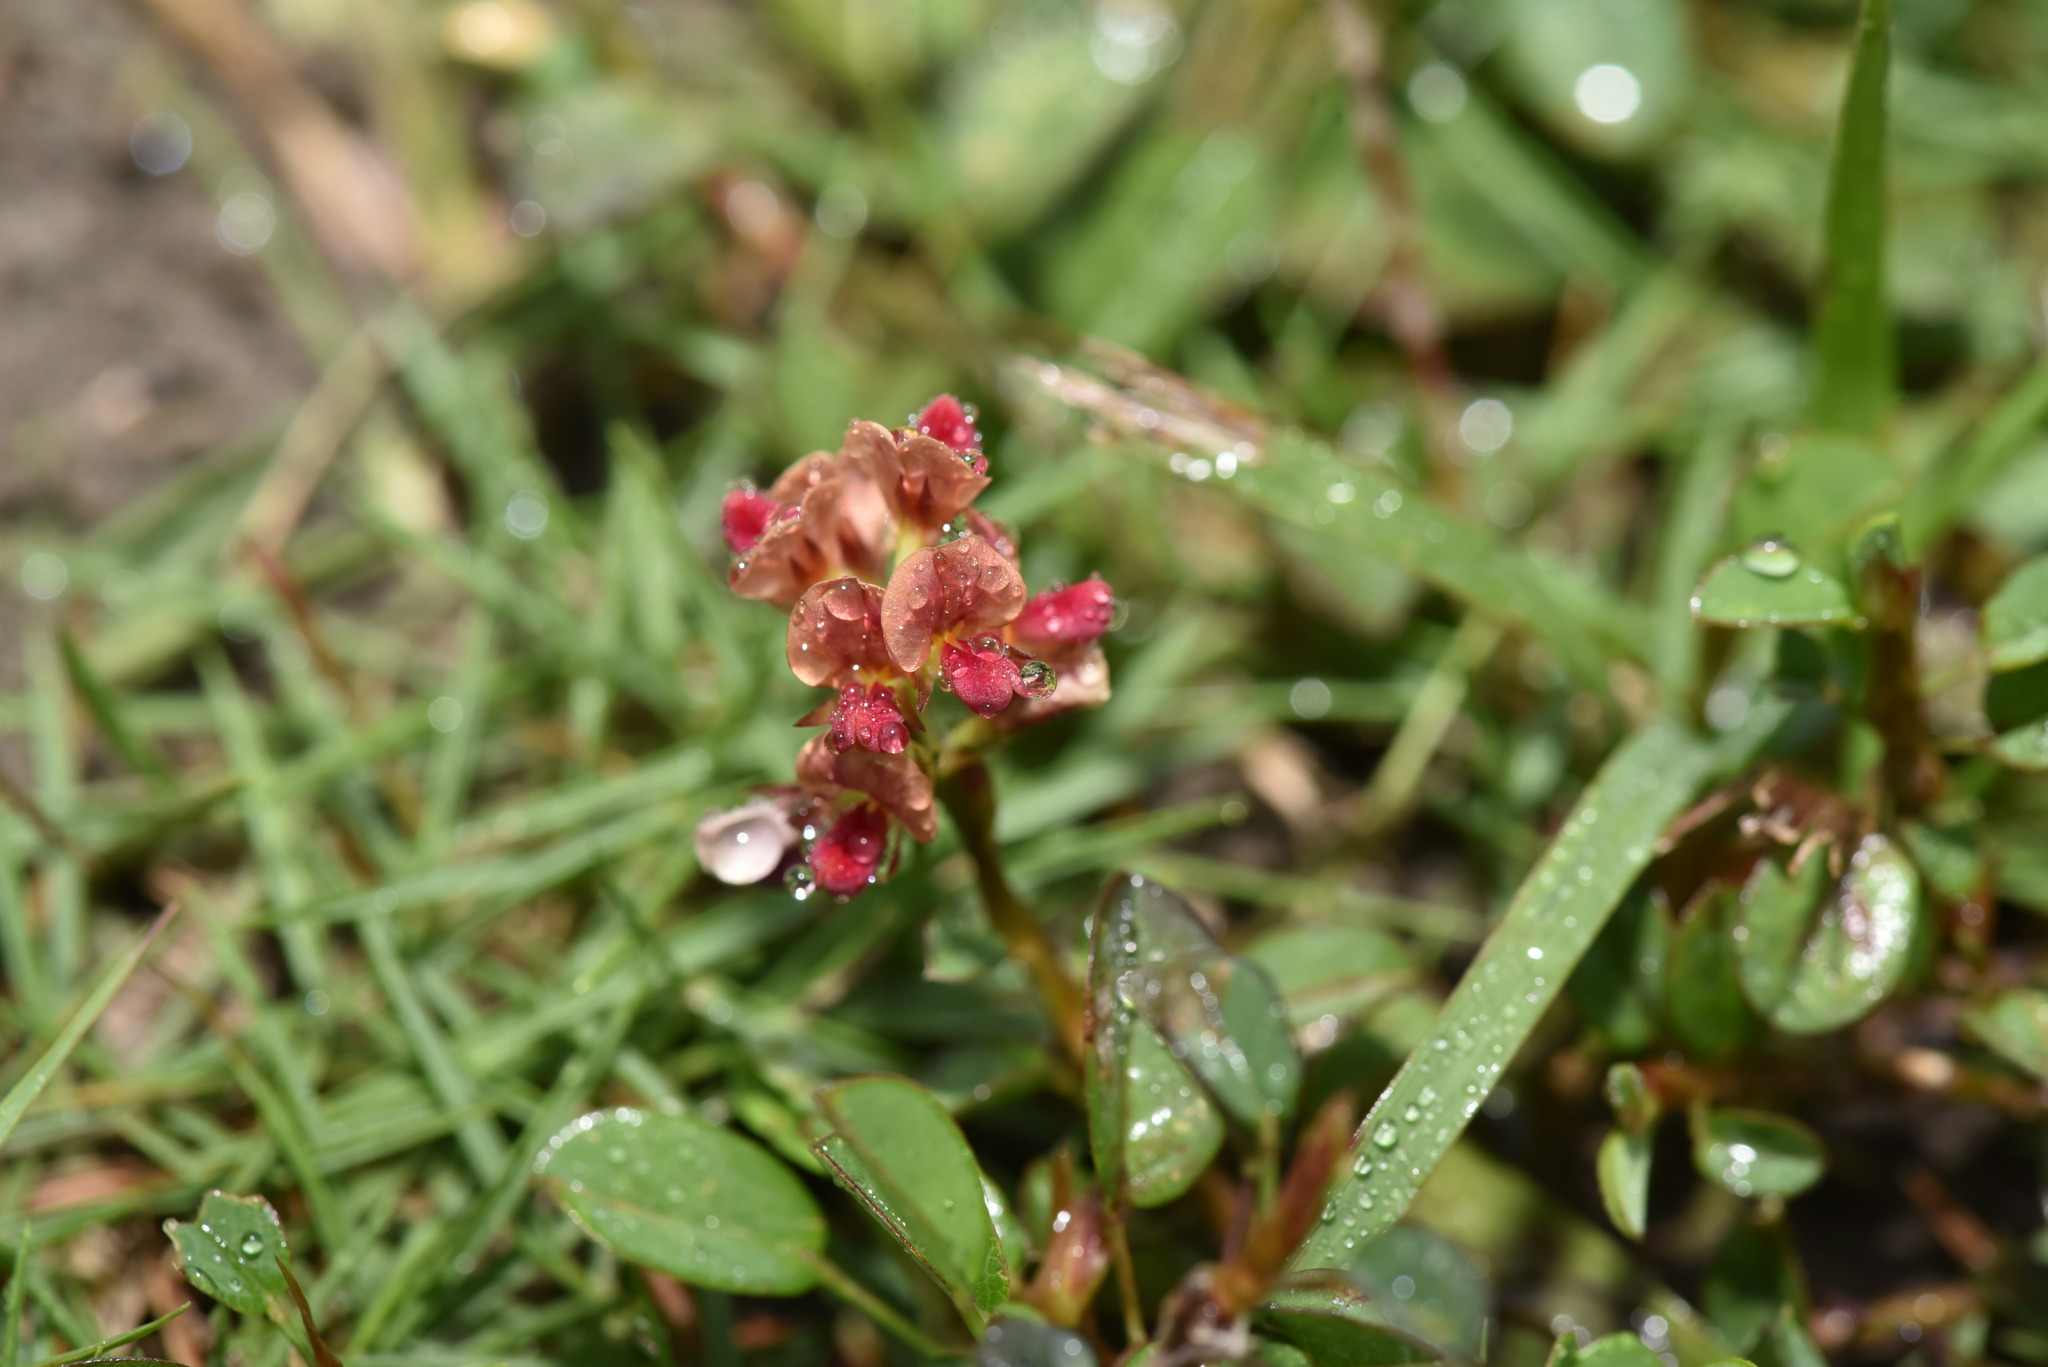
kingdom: Plantae
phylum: Tracheophyta
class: Magnoliopsida
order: Fabales
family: Fabaceae
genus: Alysicarpus
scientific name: Alysicarpus vaginalis
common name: White moneywort
